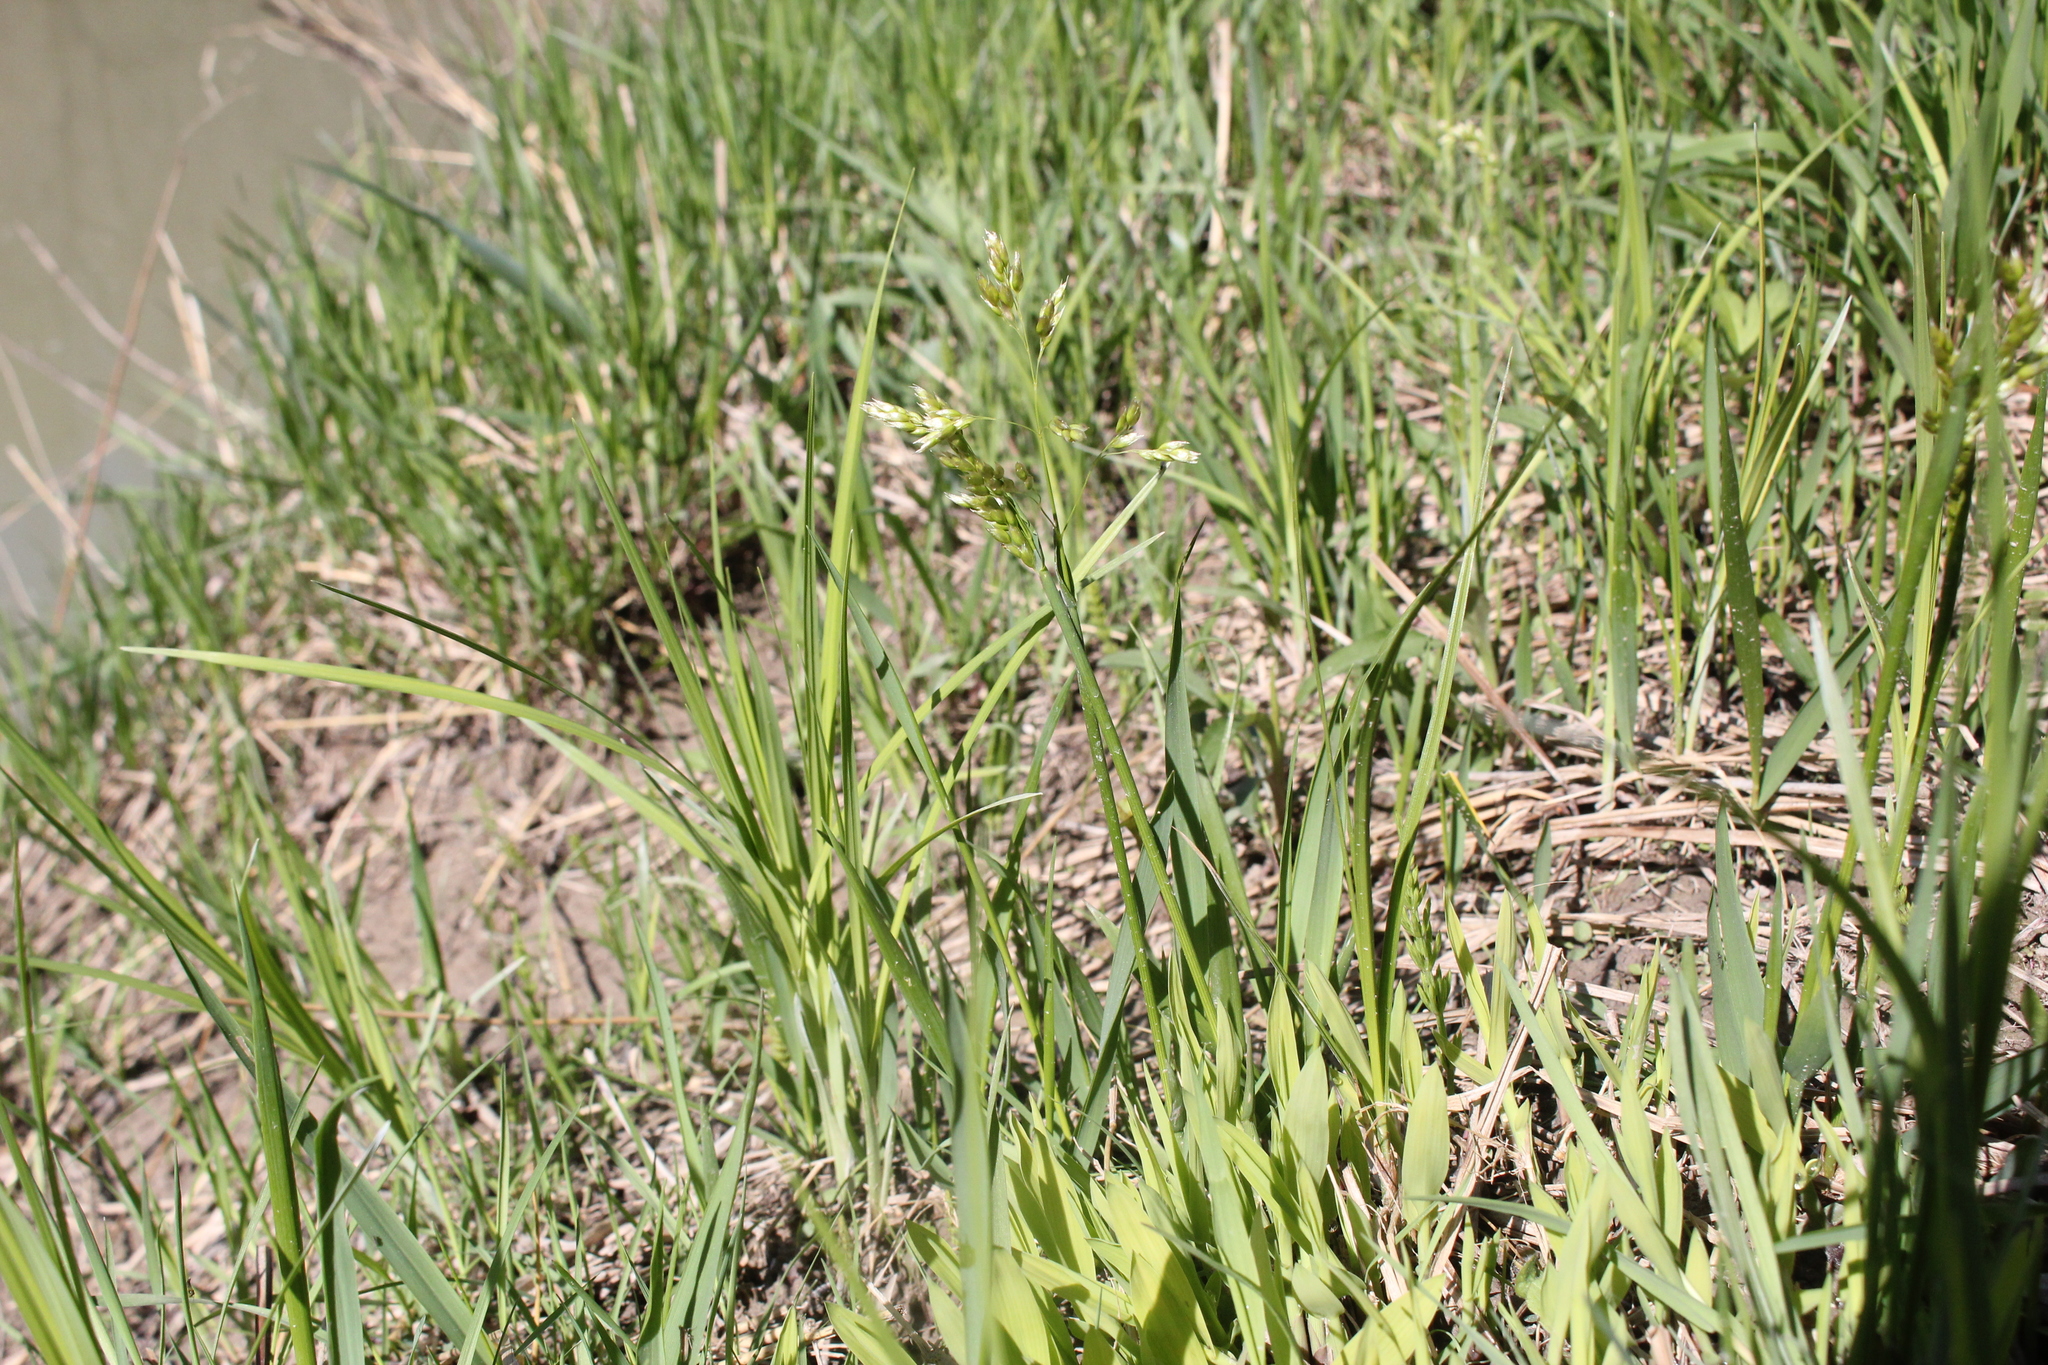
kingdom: Plantae
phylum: Tracheophyta
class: Liliopsida
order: Poales
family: Poaceae
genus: Anthoxanthum
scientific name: Anthoxanthum nitens
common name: Holy grass
